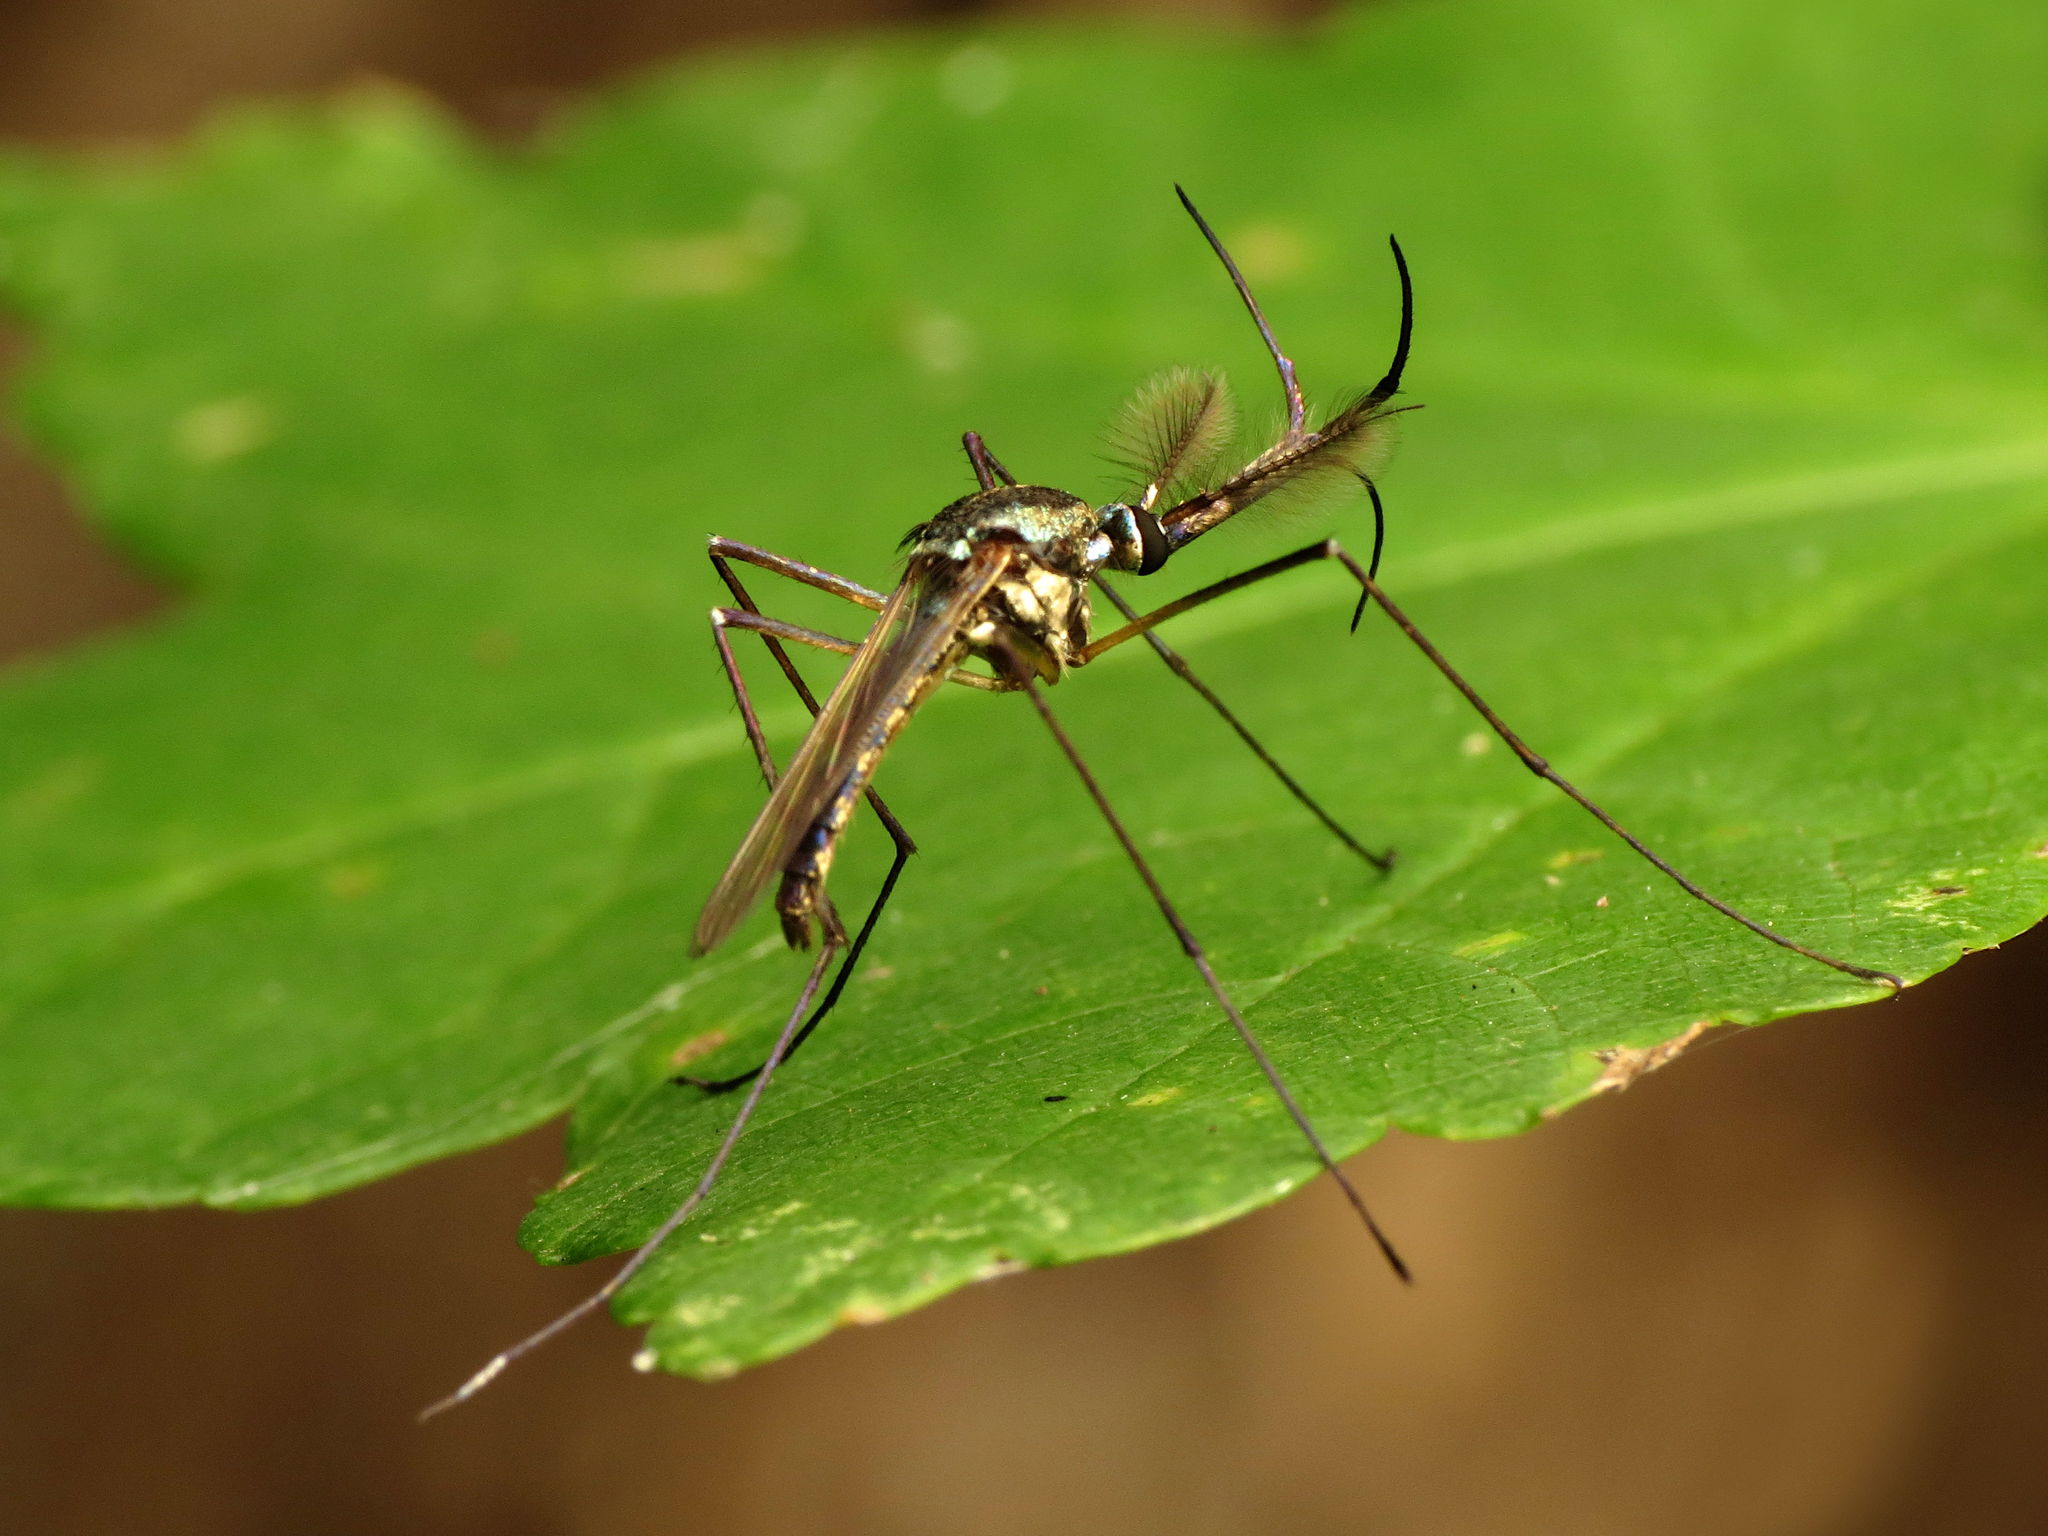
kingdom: Animalia
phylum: Arthropoda
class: Insecta
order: Diptera
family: Culicidae
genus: Toxorhynchites
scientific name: Toxorhynchites rutilus
